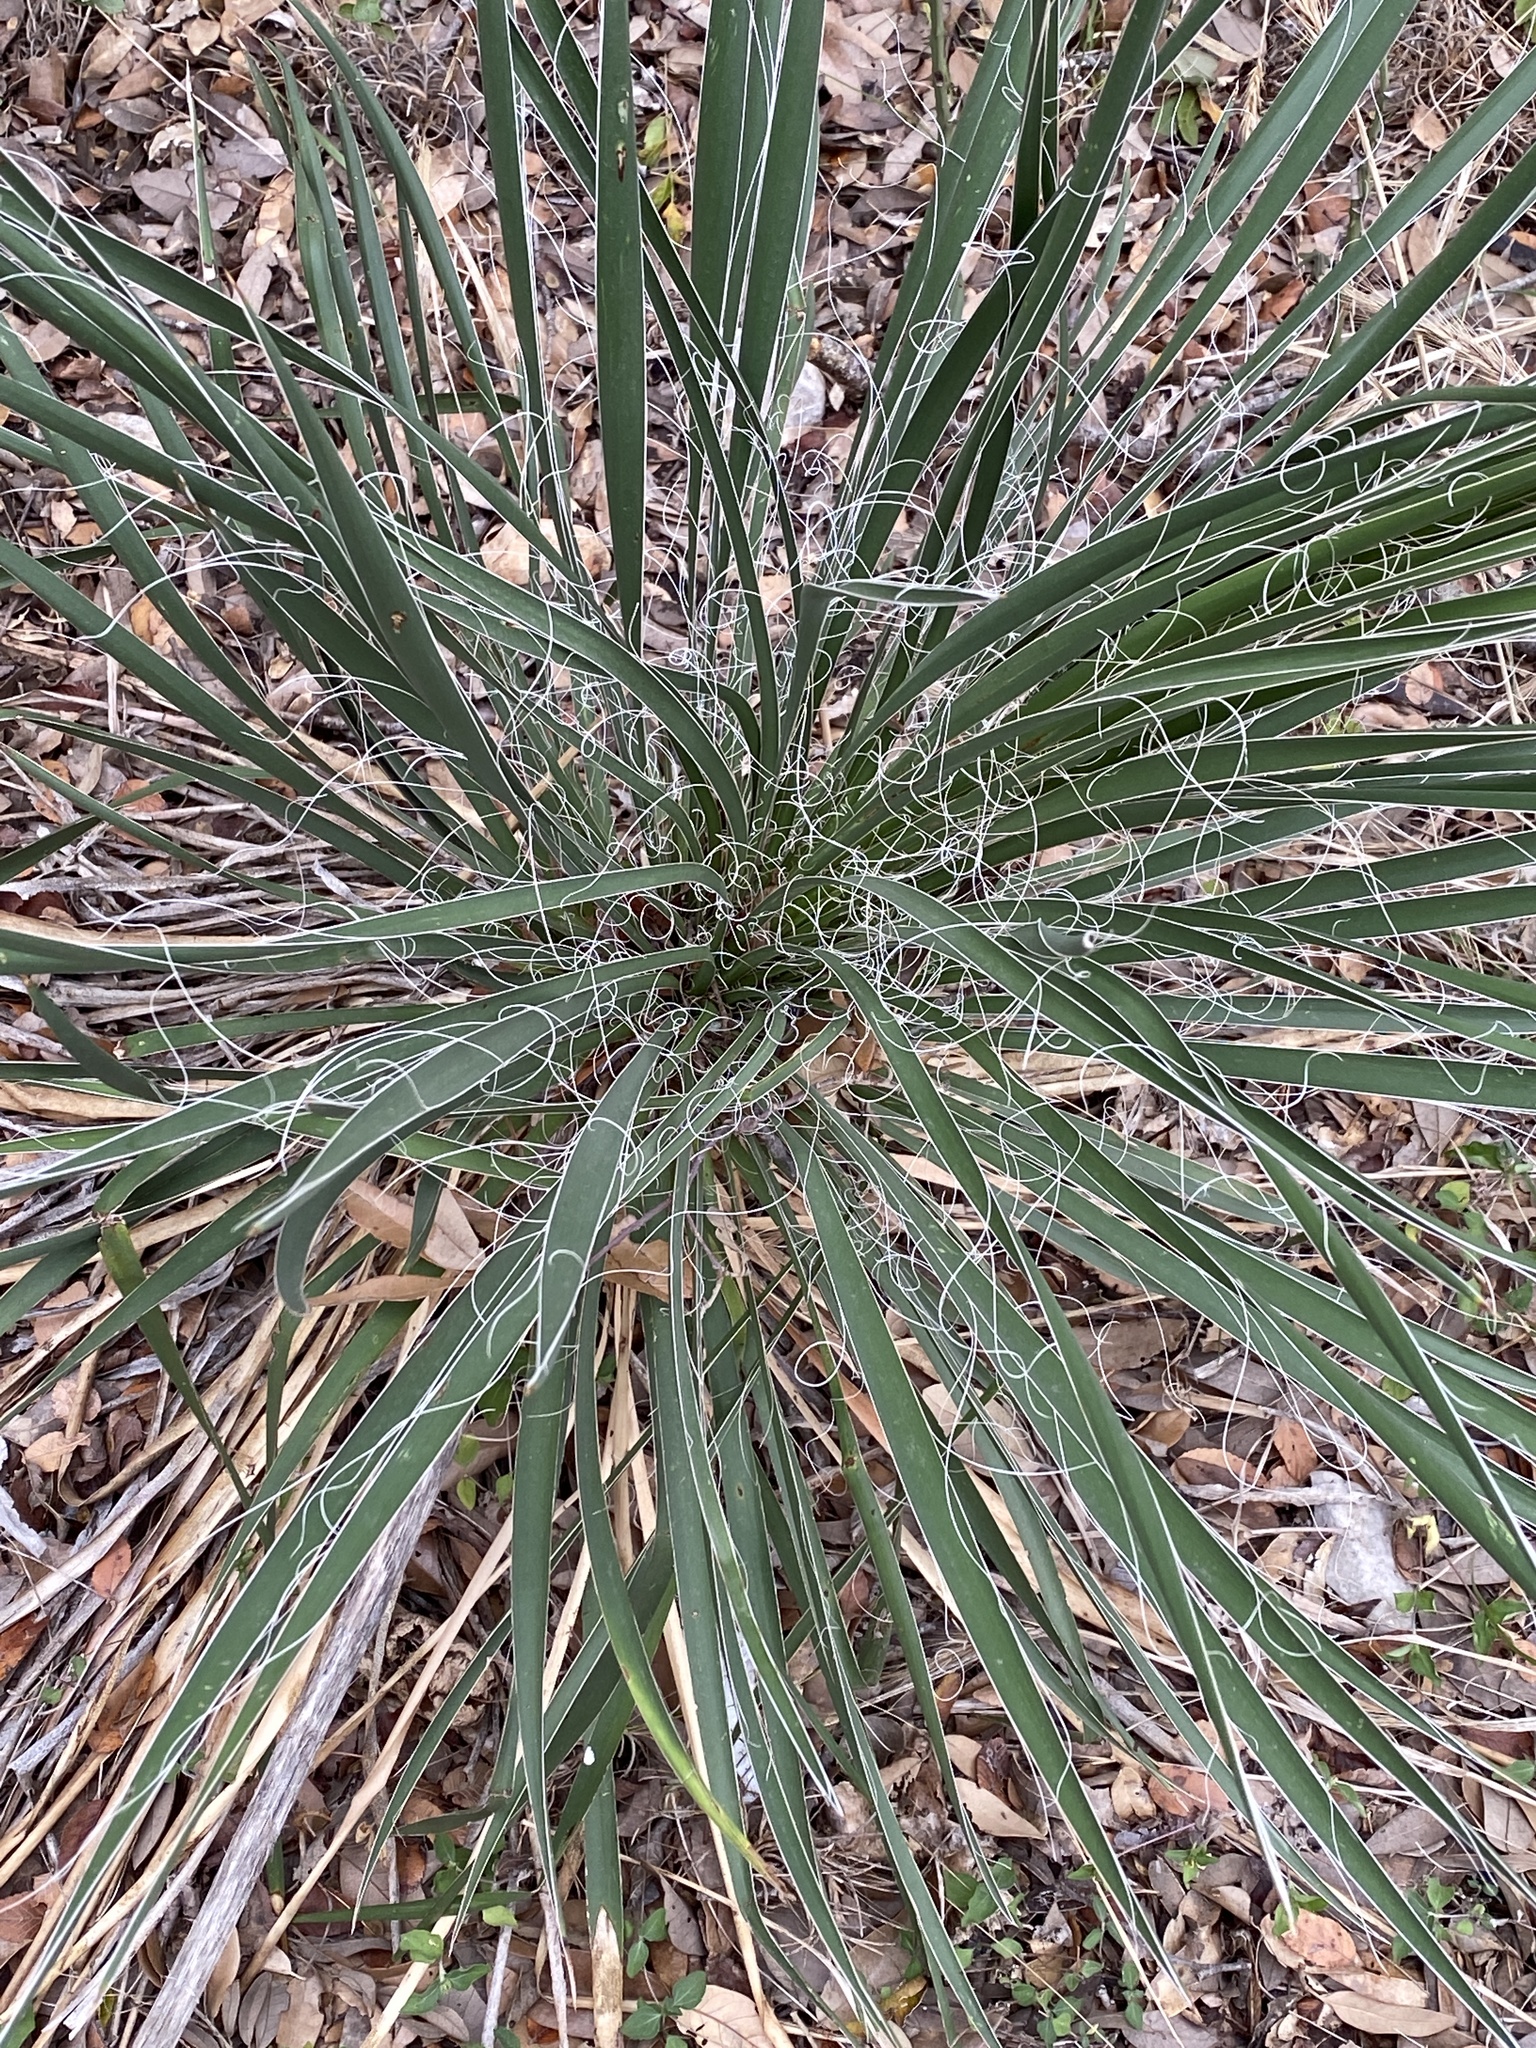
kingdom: Plantae
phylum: Tracheophyta
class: Liliopsida
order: Asparagales
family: Asparagaceae
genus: Yucca
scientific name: Yucca constricta
